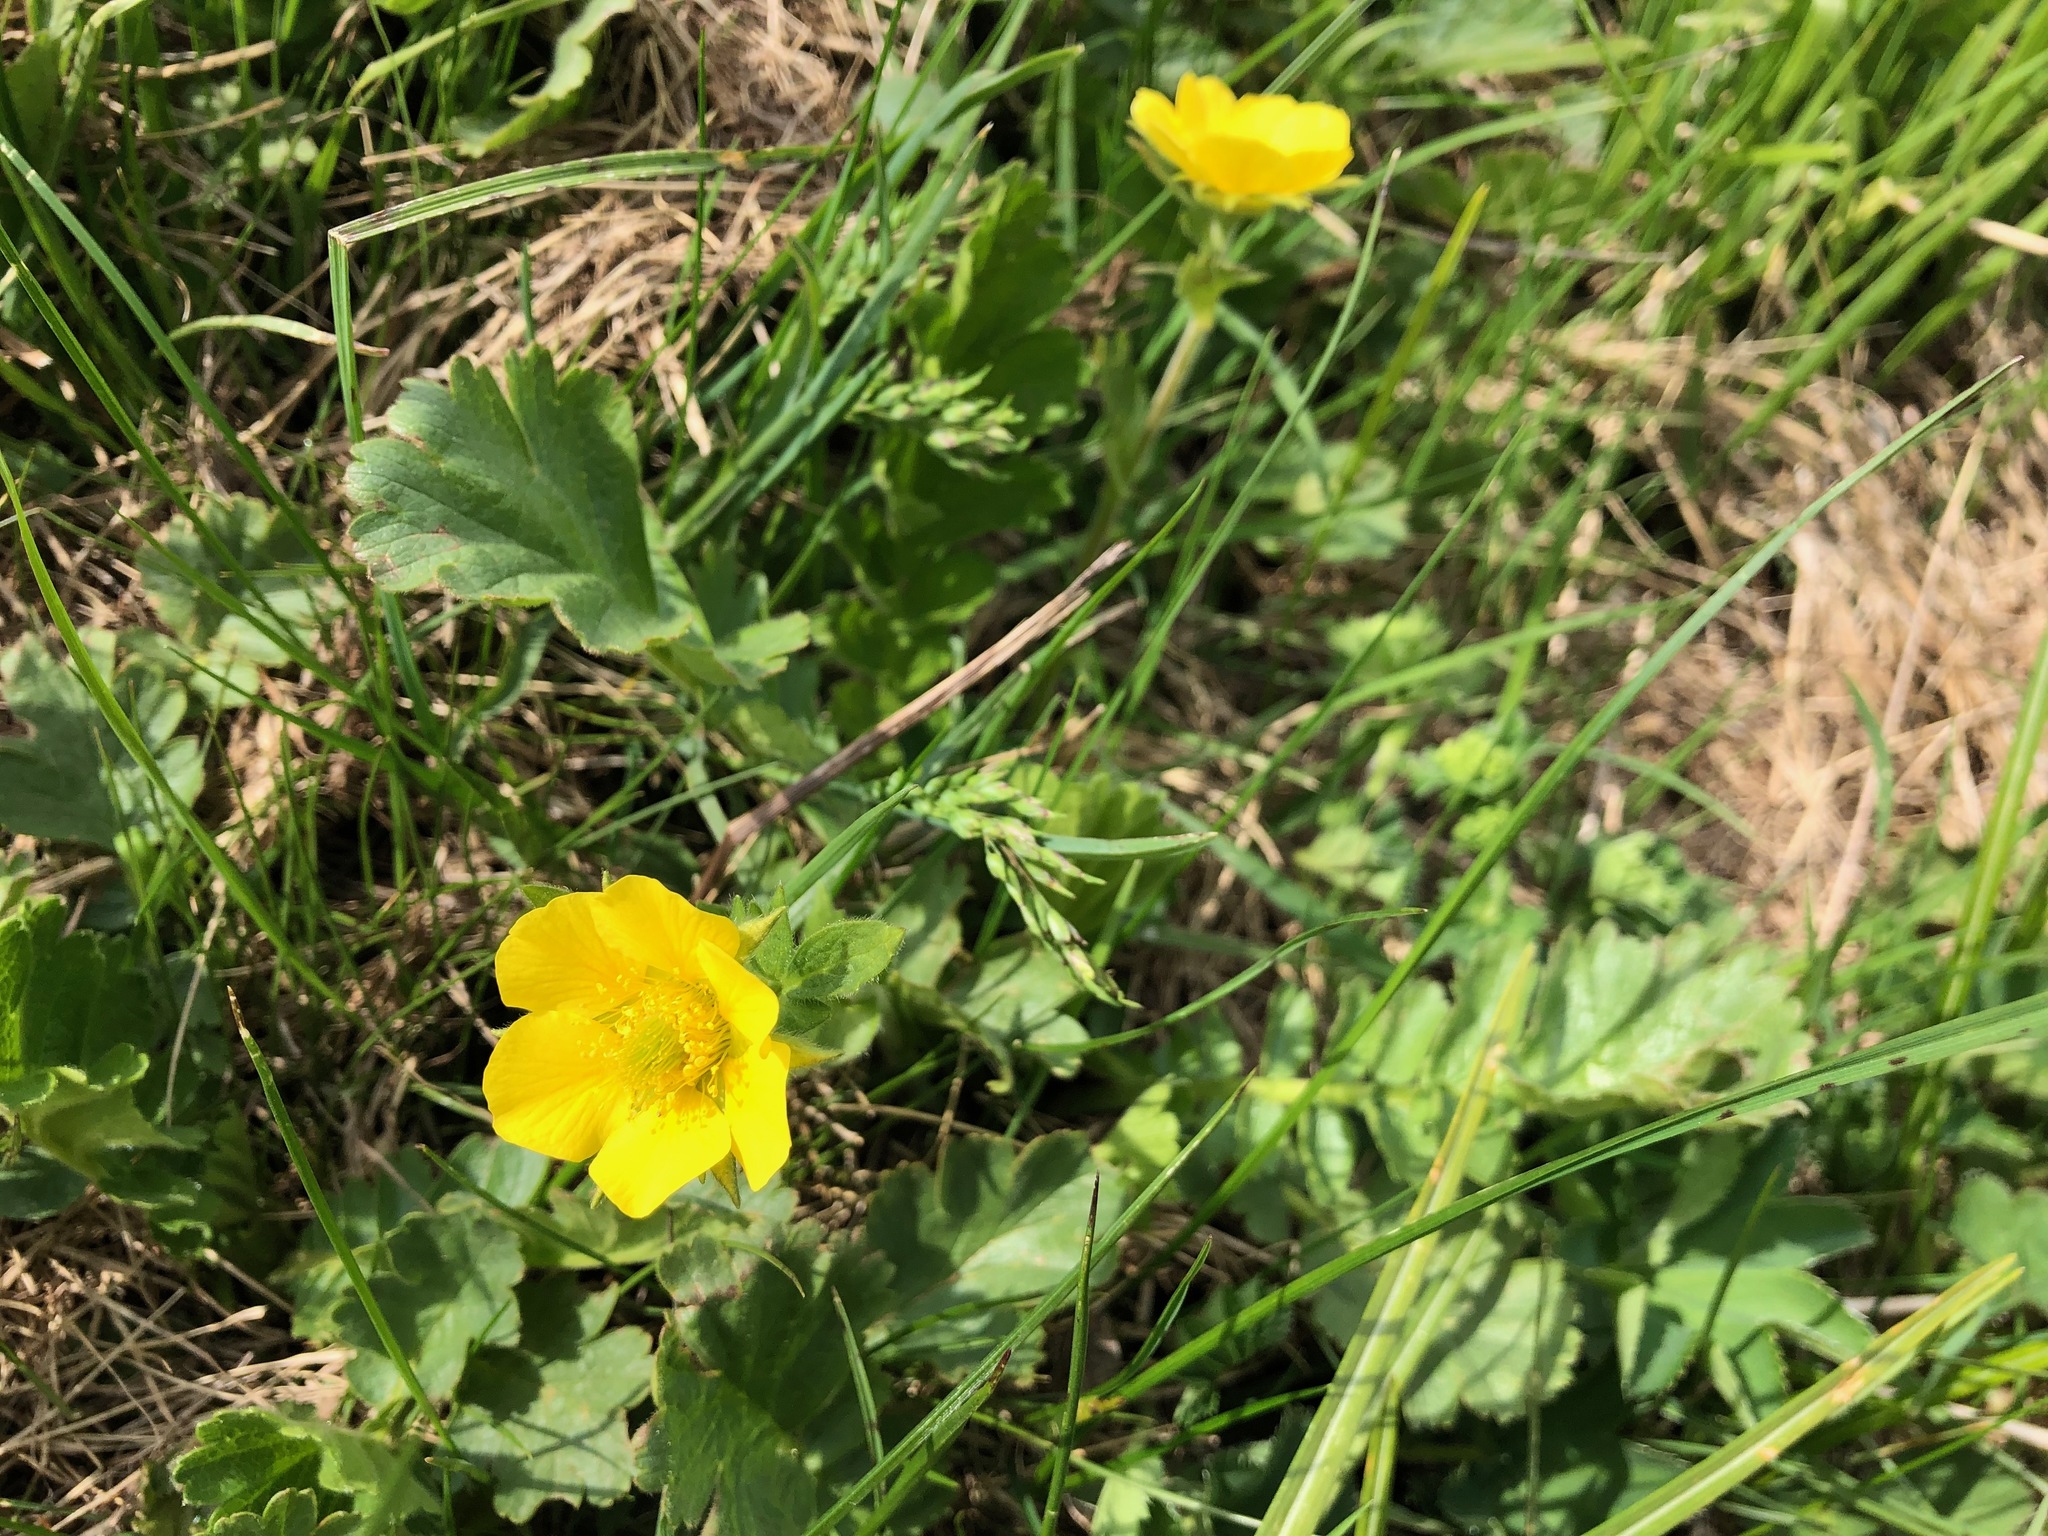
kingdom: Plantae
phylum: Tracheophyta
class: Magnoliopsida
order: Rosales
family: Rosaceae
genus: Geum
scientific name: Geum montanum
